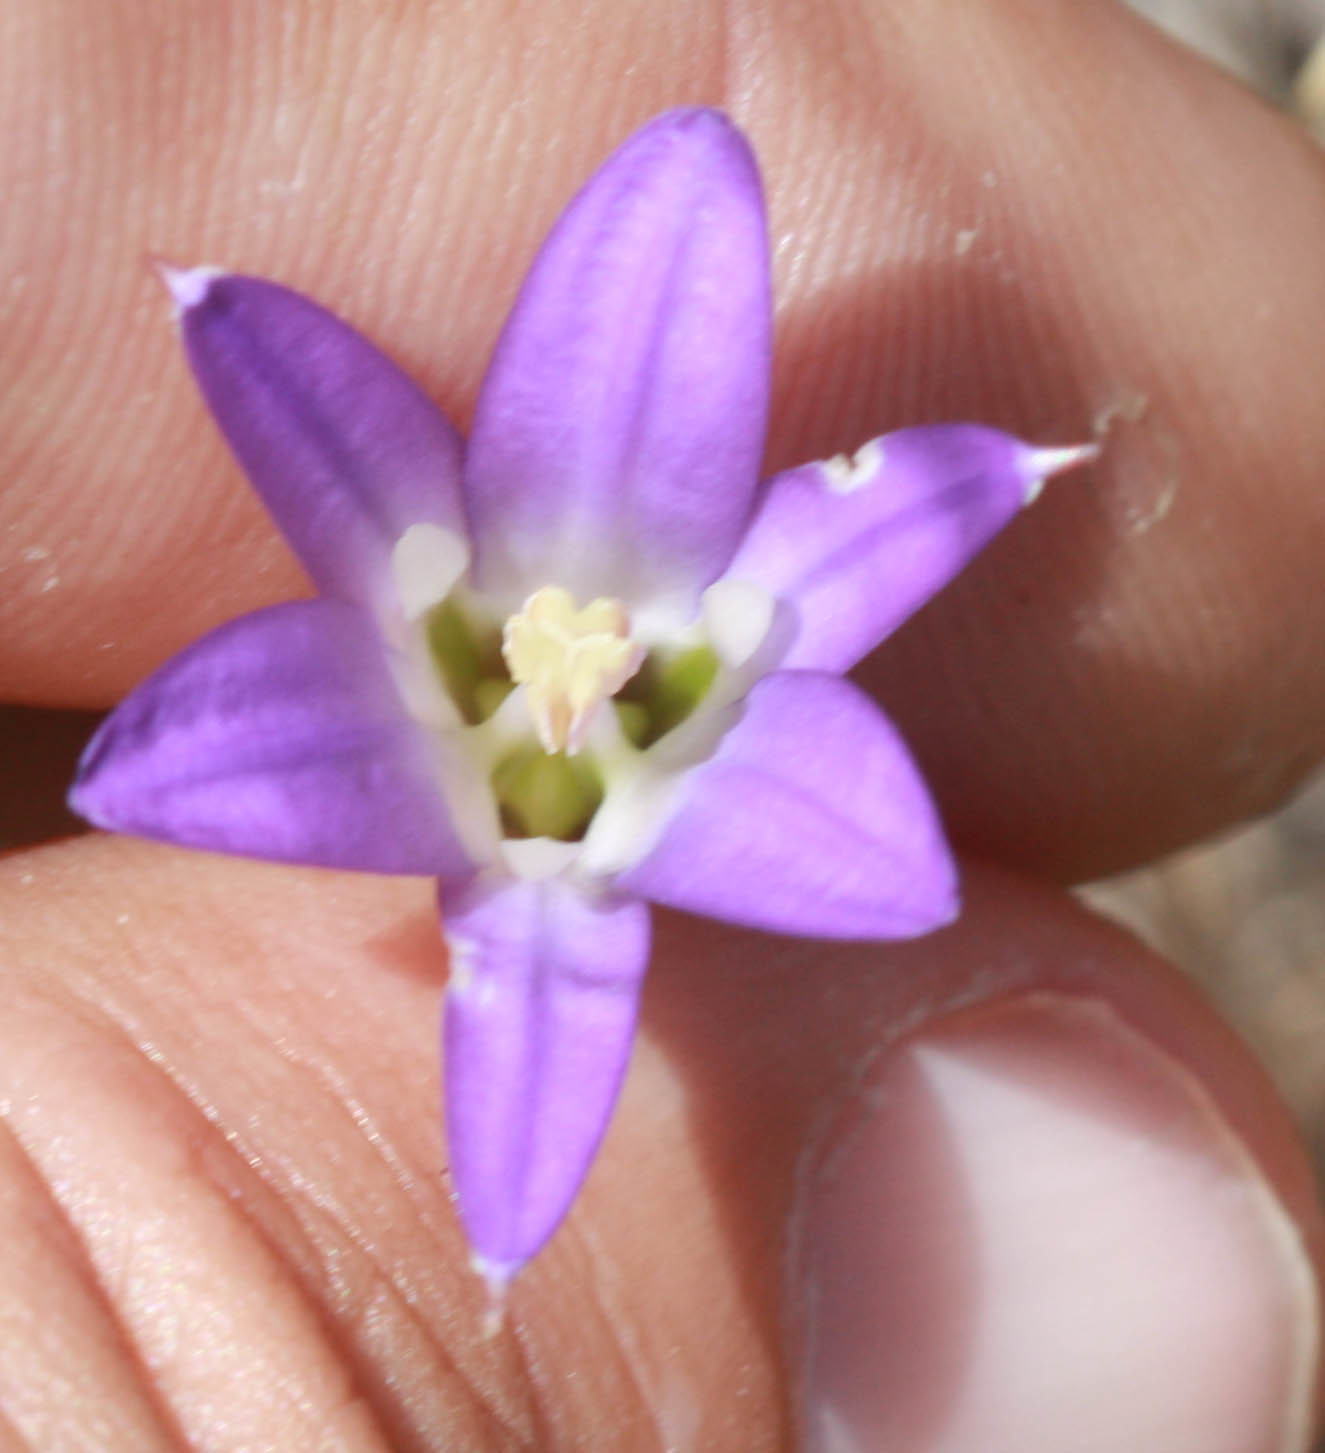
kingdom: Plantae
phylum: Tracheophyta
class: Liliopsida
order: Asparagales
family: Asparagaceae
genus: Brodiaea
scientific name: Brodiaea elegans
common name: Elegant cluster-lily
